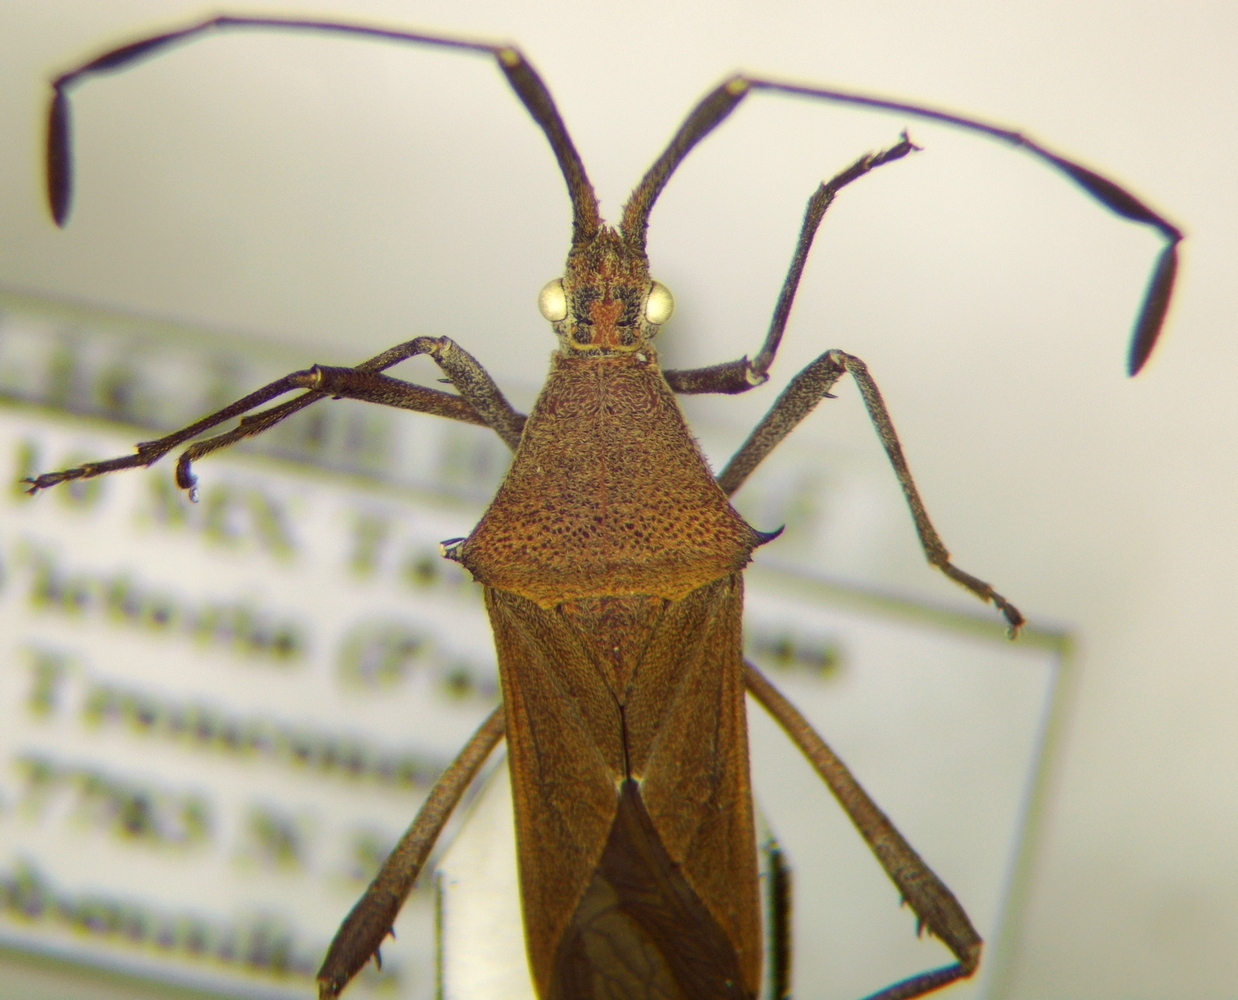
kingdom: Animalia
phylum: Arthropoda
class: Insecta
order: Hemiptera
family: Coreidae
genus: Chariesterus
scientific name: Chariesterus moestus
